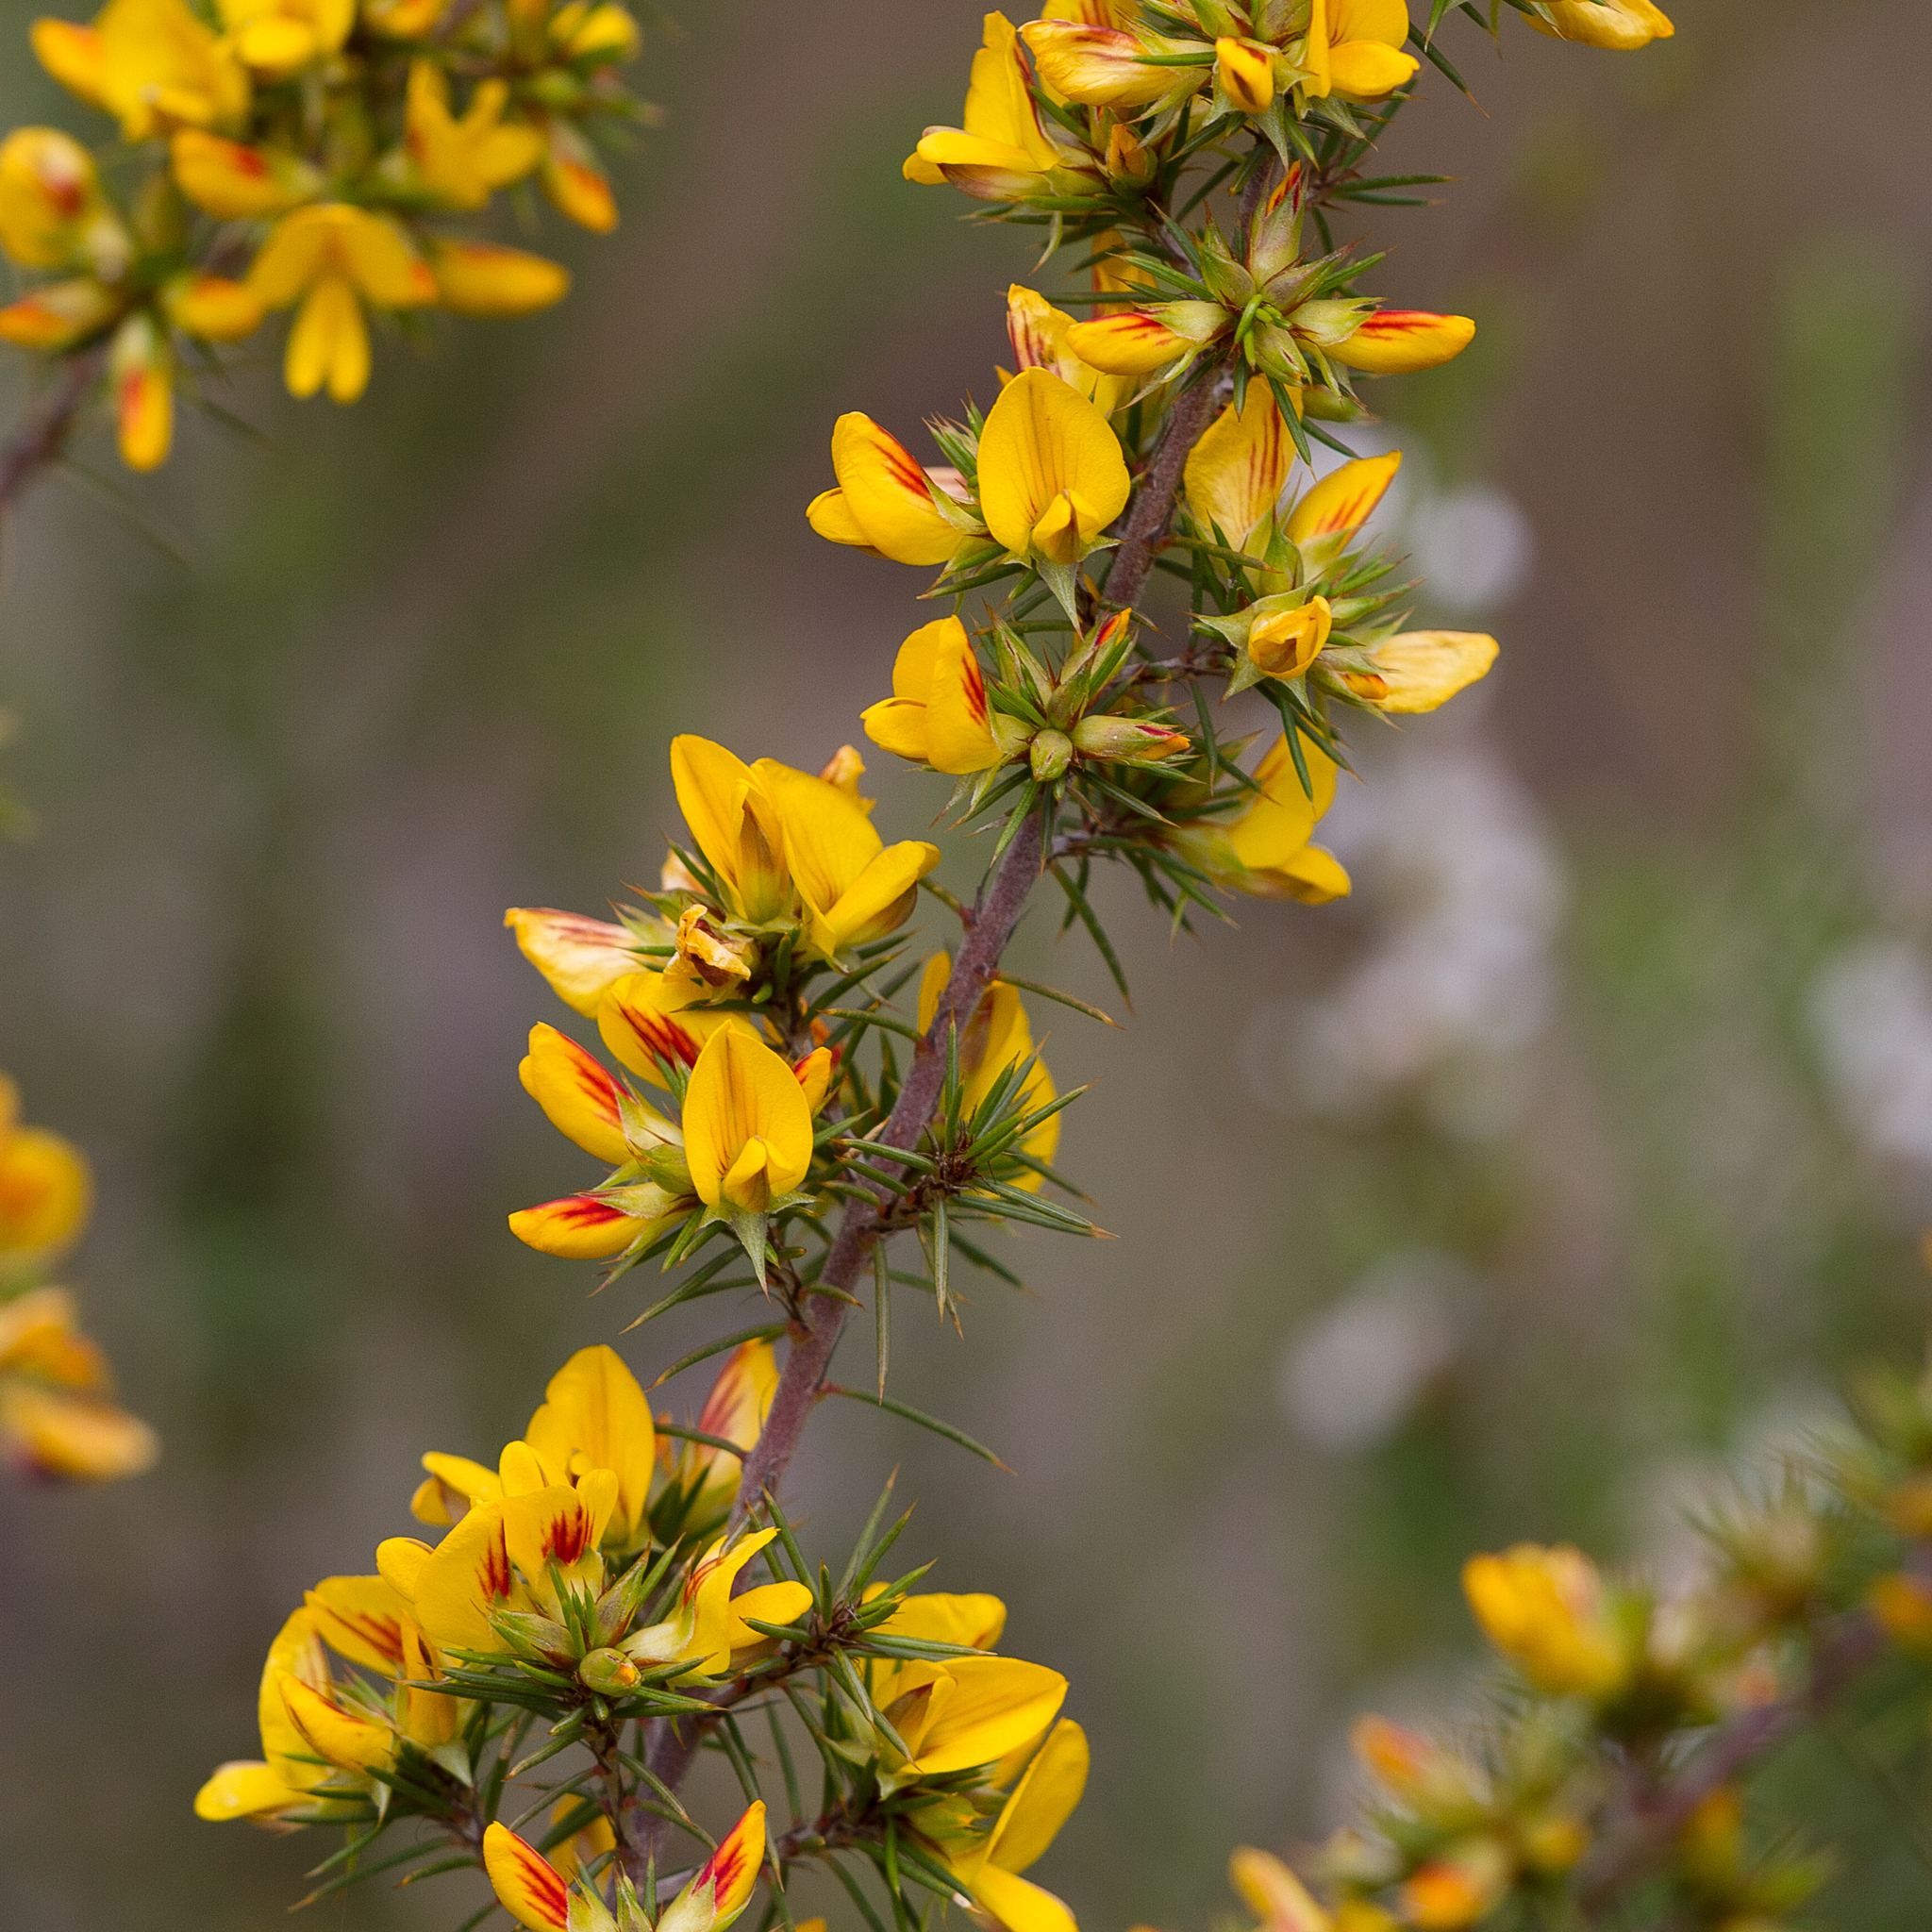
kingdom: Plantae
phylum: Tracheophyta
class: Magnoliopsida
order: Fabales
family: Fabaceae
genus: Pultenaea
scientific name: Pultenaea acerosa
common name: Bristly bush-pea
